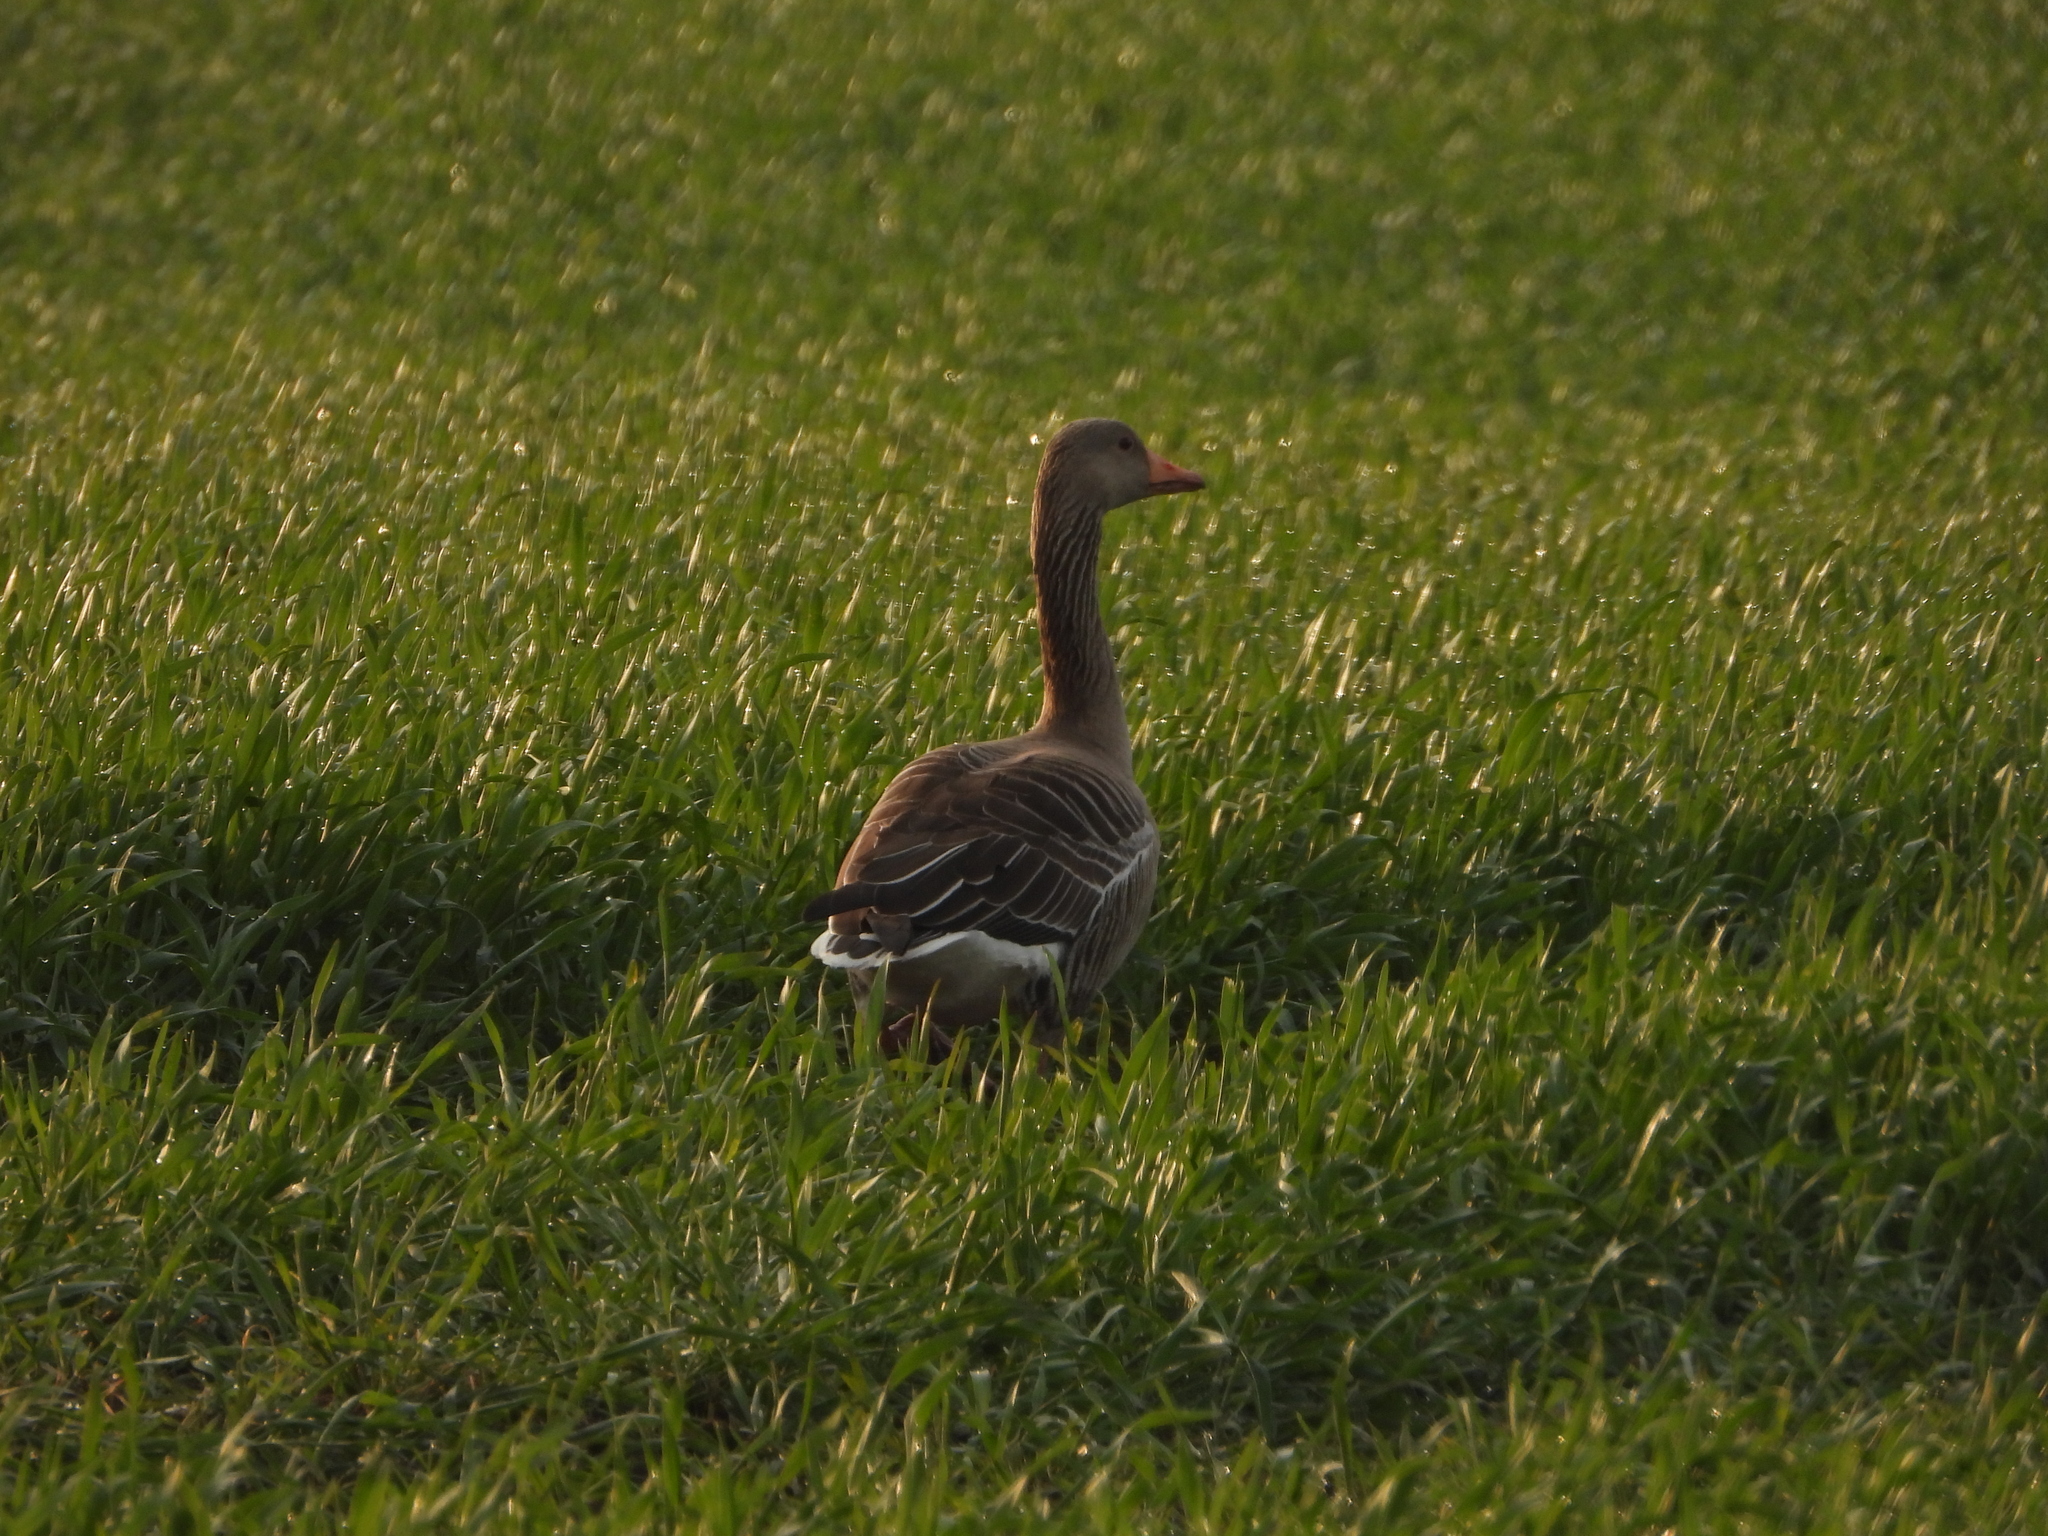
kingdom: Animalia
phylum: Chordata
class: Aves
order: Anseriformes
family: Anatidae
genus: Anser
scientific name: Anser anser
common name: Greylag goose
